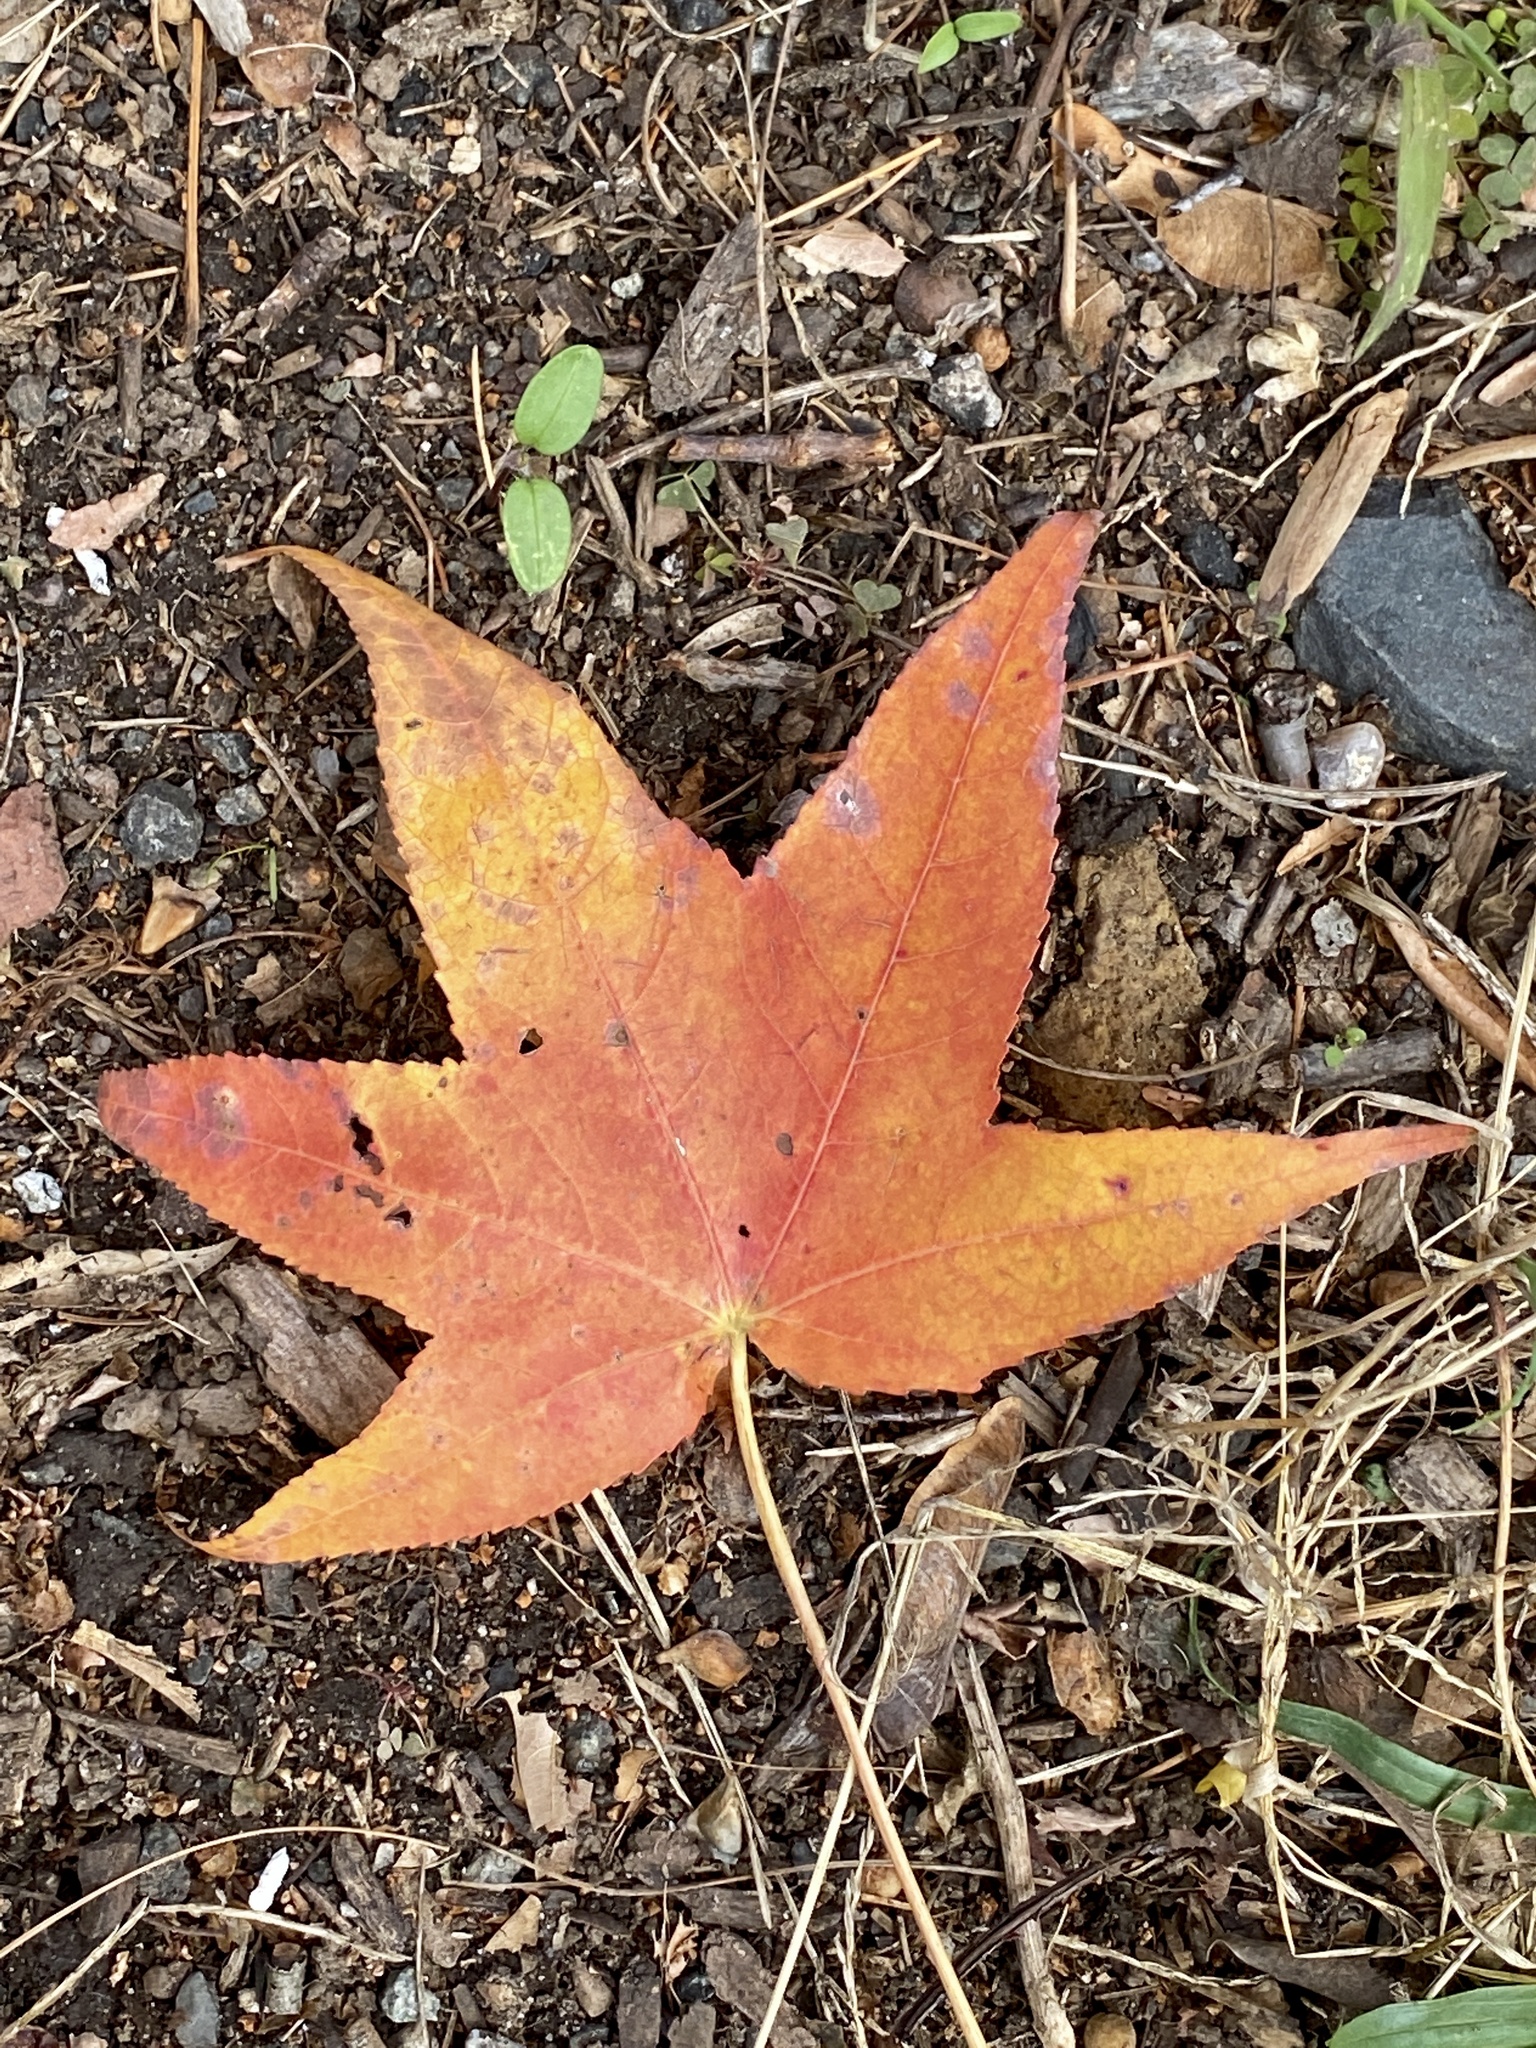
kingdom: Plantae
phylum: Tracheophyta
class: Magnoliopsida
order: Saxifragales
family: Altingiaceae
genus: Liquidambar
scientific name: Liquidambar styraciflua
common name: Sweet gum
